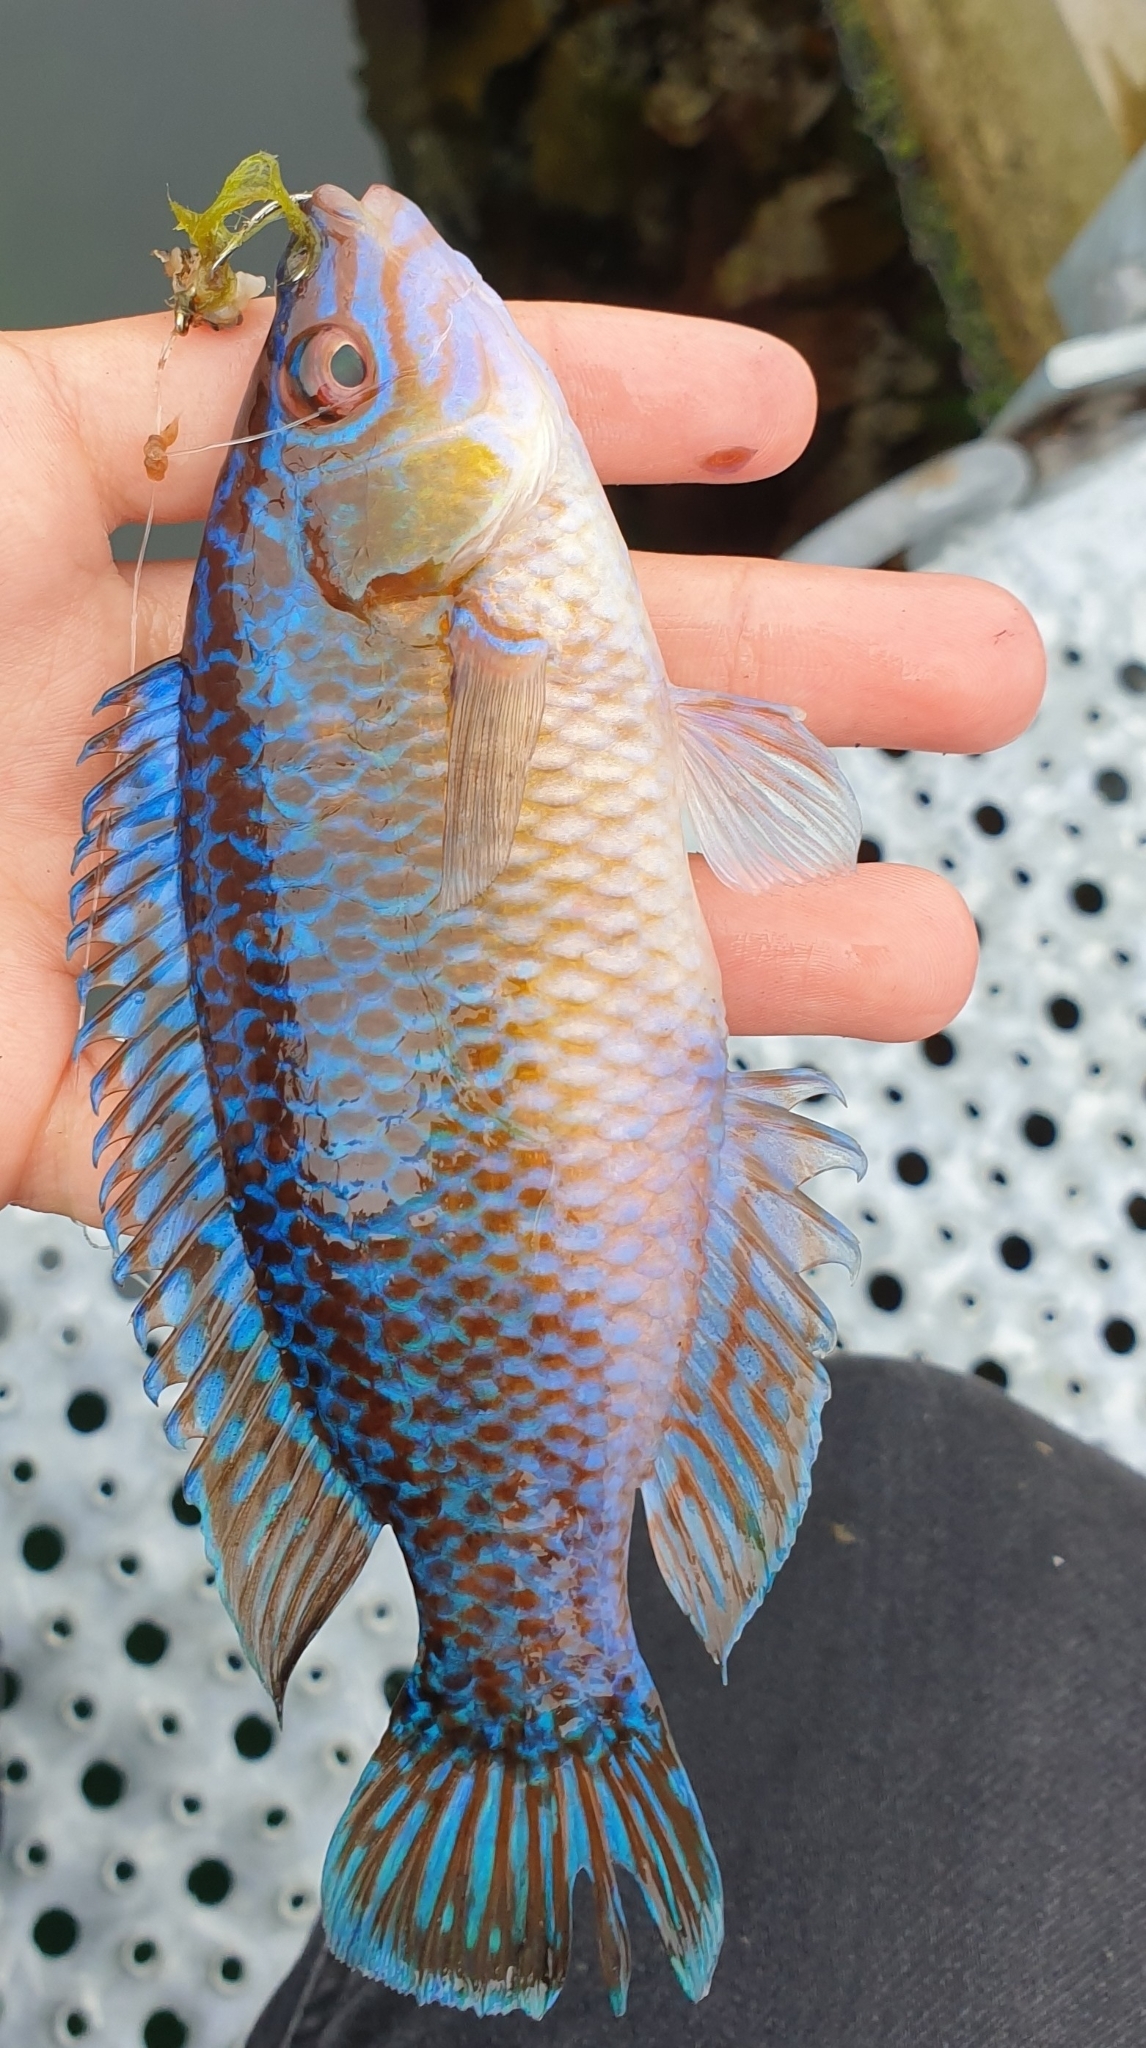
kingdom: Animalia
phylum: Chordata
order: Perciformes
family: Labridae
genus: Centrolabrus
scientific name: Centrolabrus exoletus
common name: Rock cook
